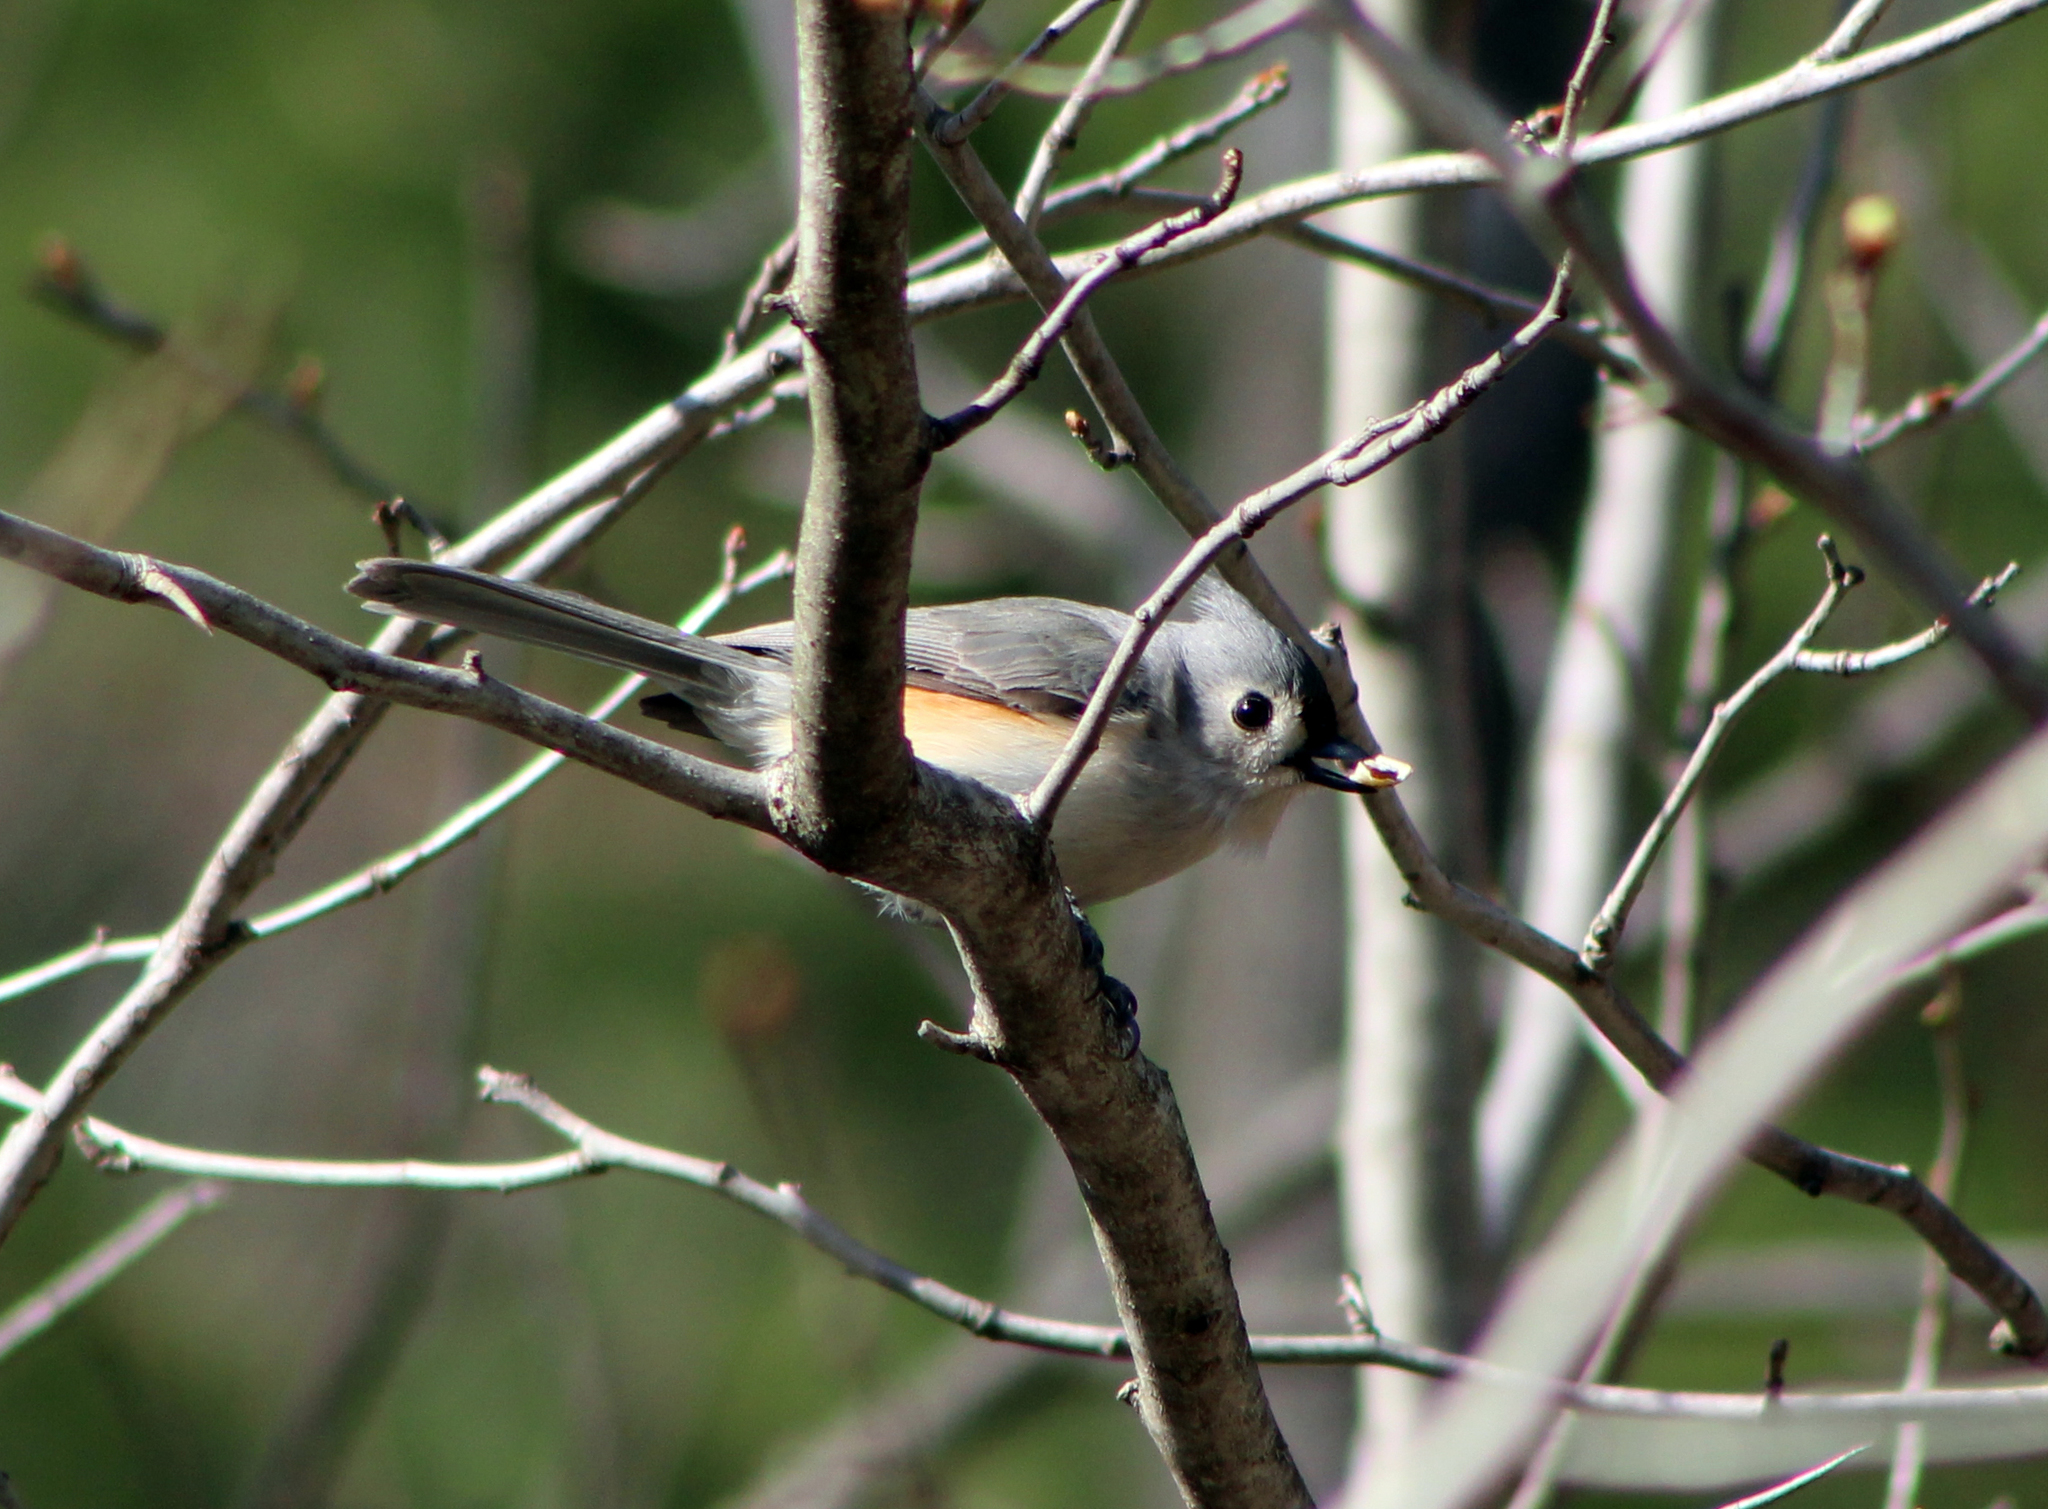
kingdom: Animalia
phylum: Chordata
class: Aves
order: Passeriformes
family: Paridae
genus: Baeolophus
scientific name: Baeolophus bicolor
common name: Tufted titmouse
